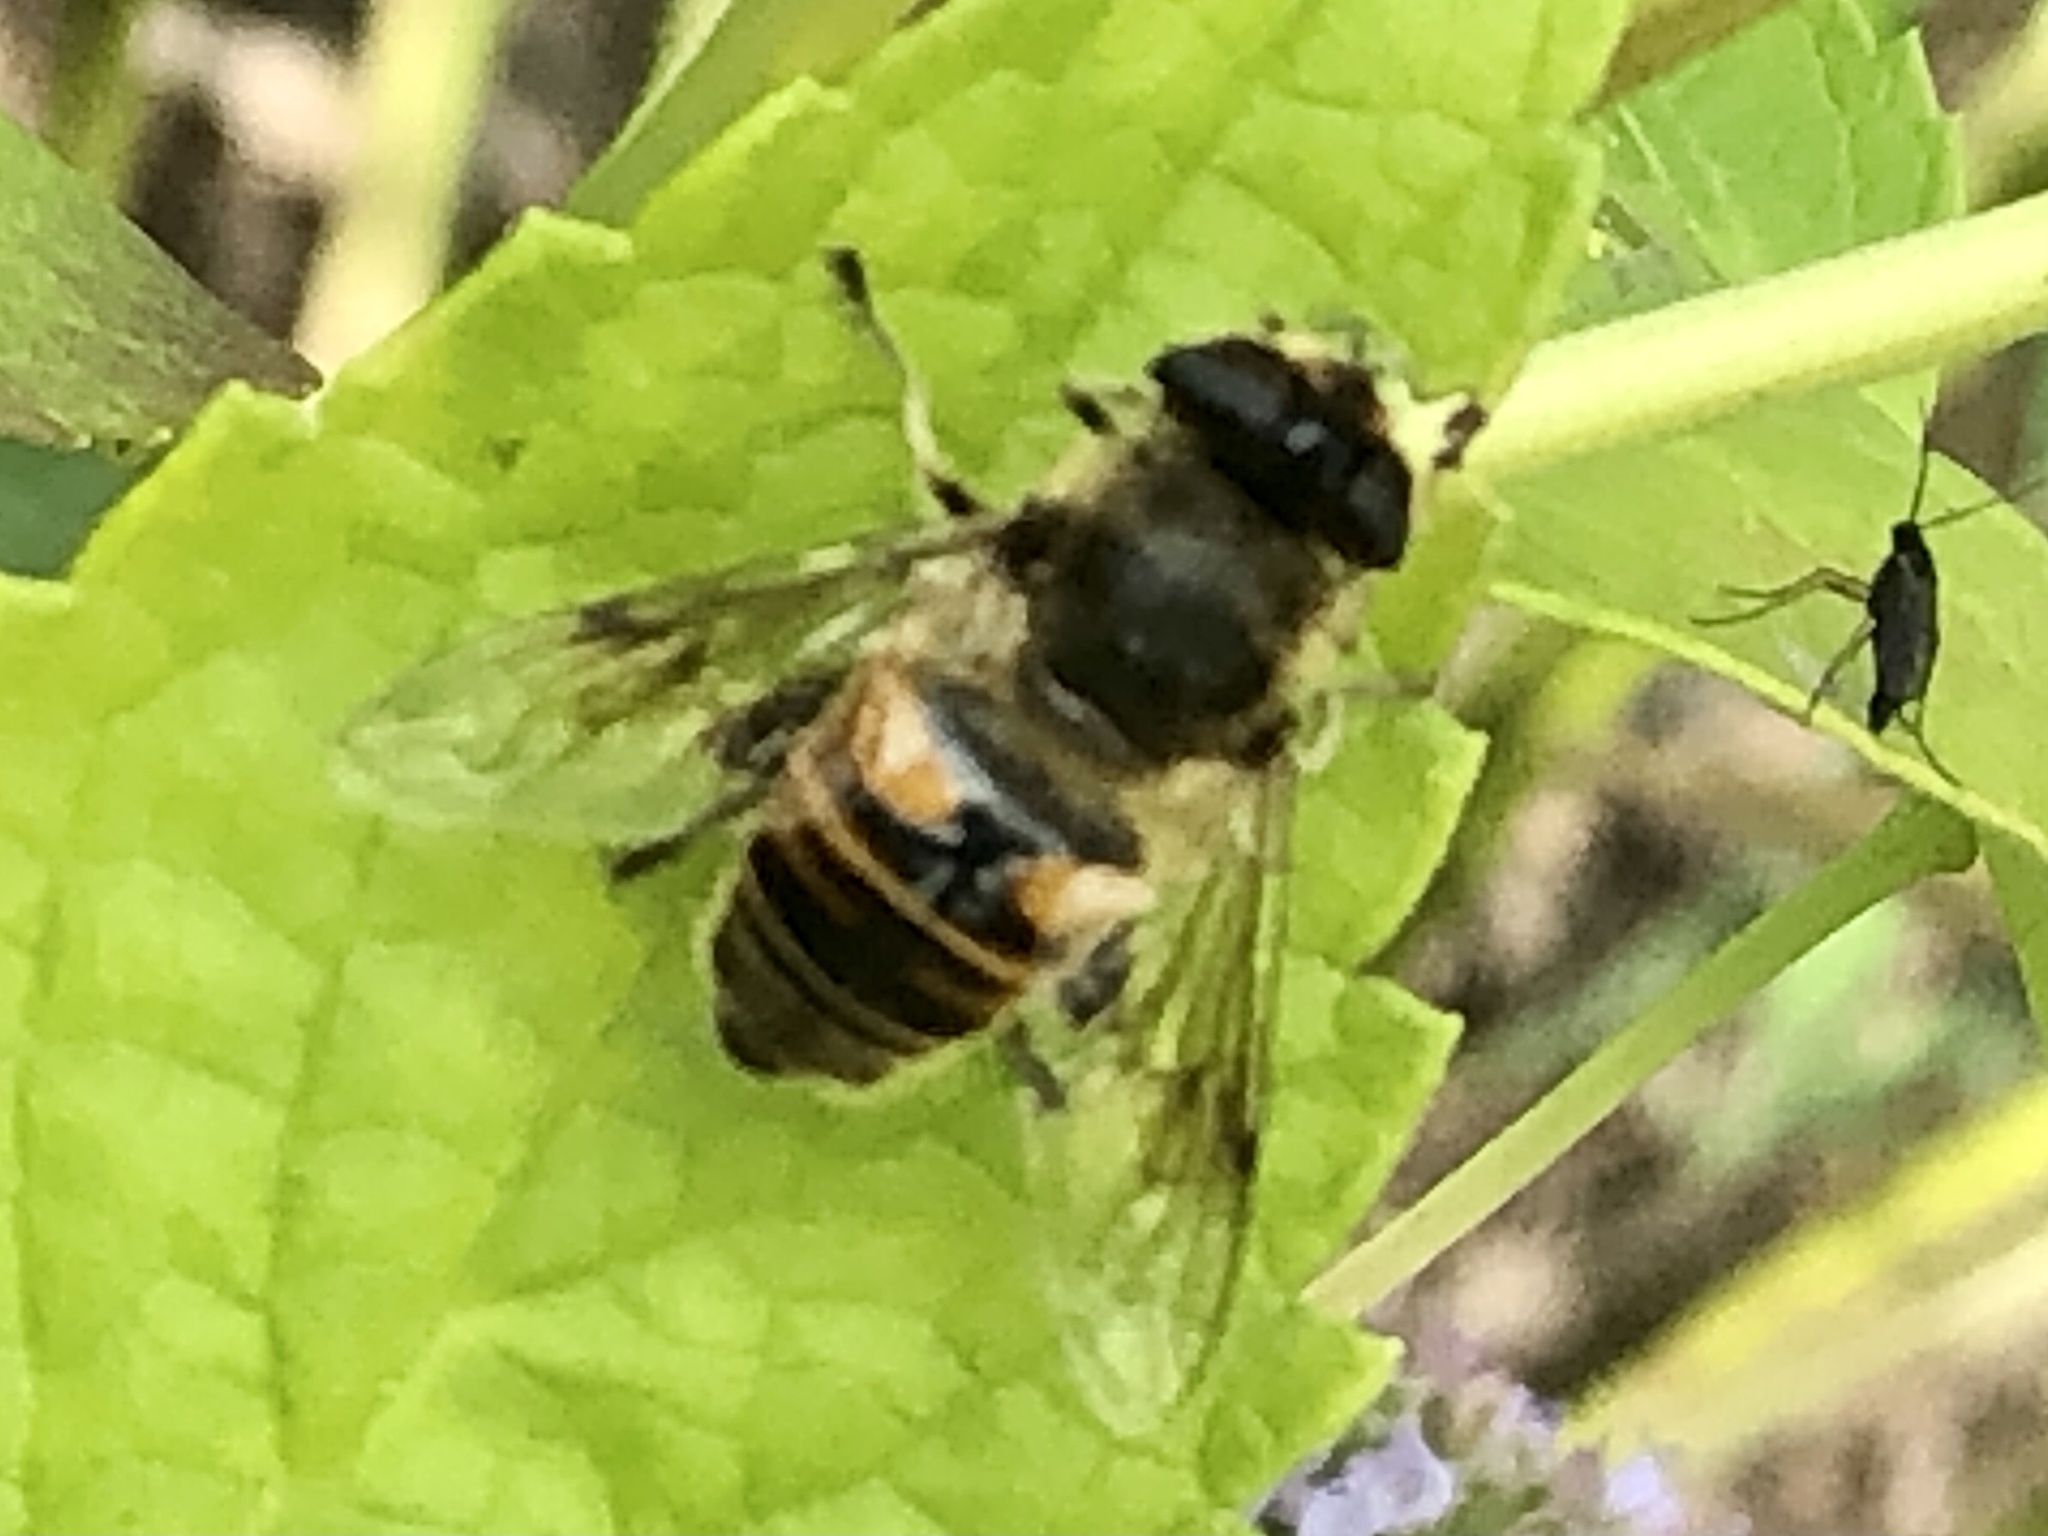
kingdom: Animalia
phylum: Arthropoda
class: Insecta
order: Diptera
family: Syrphidae
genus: Eristalis
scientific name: Eristalis tenax
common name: Drone fly
